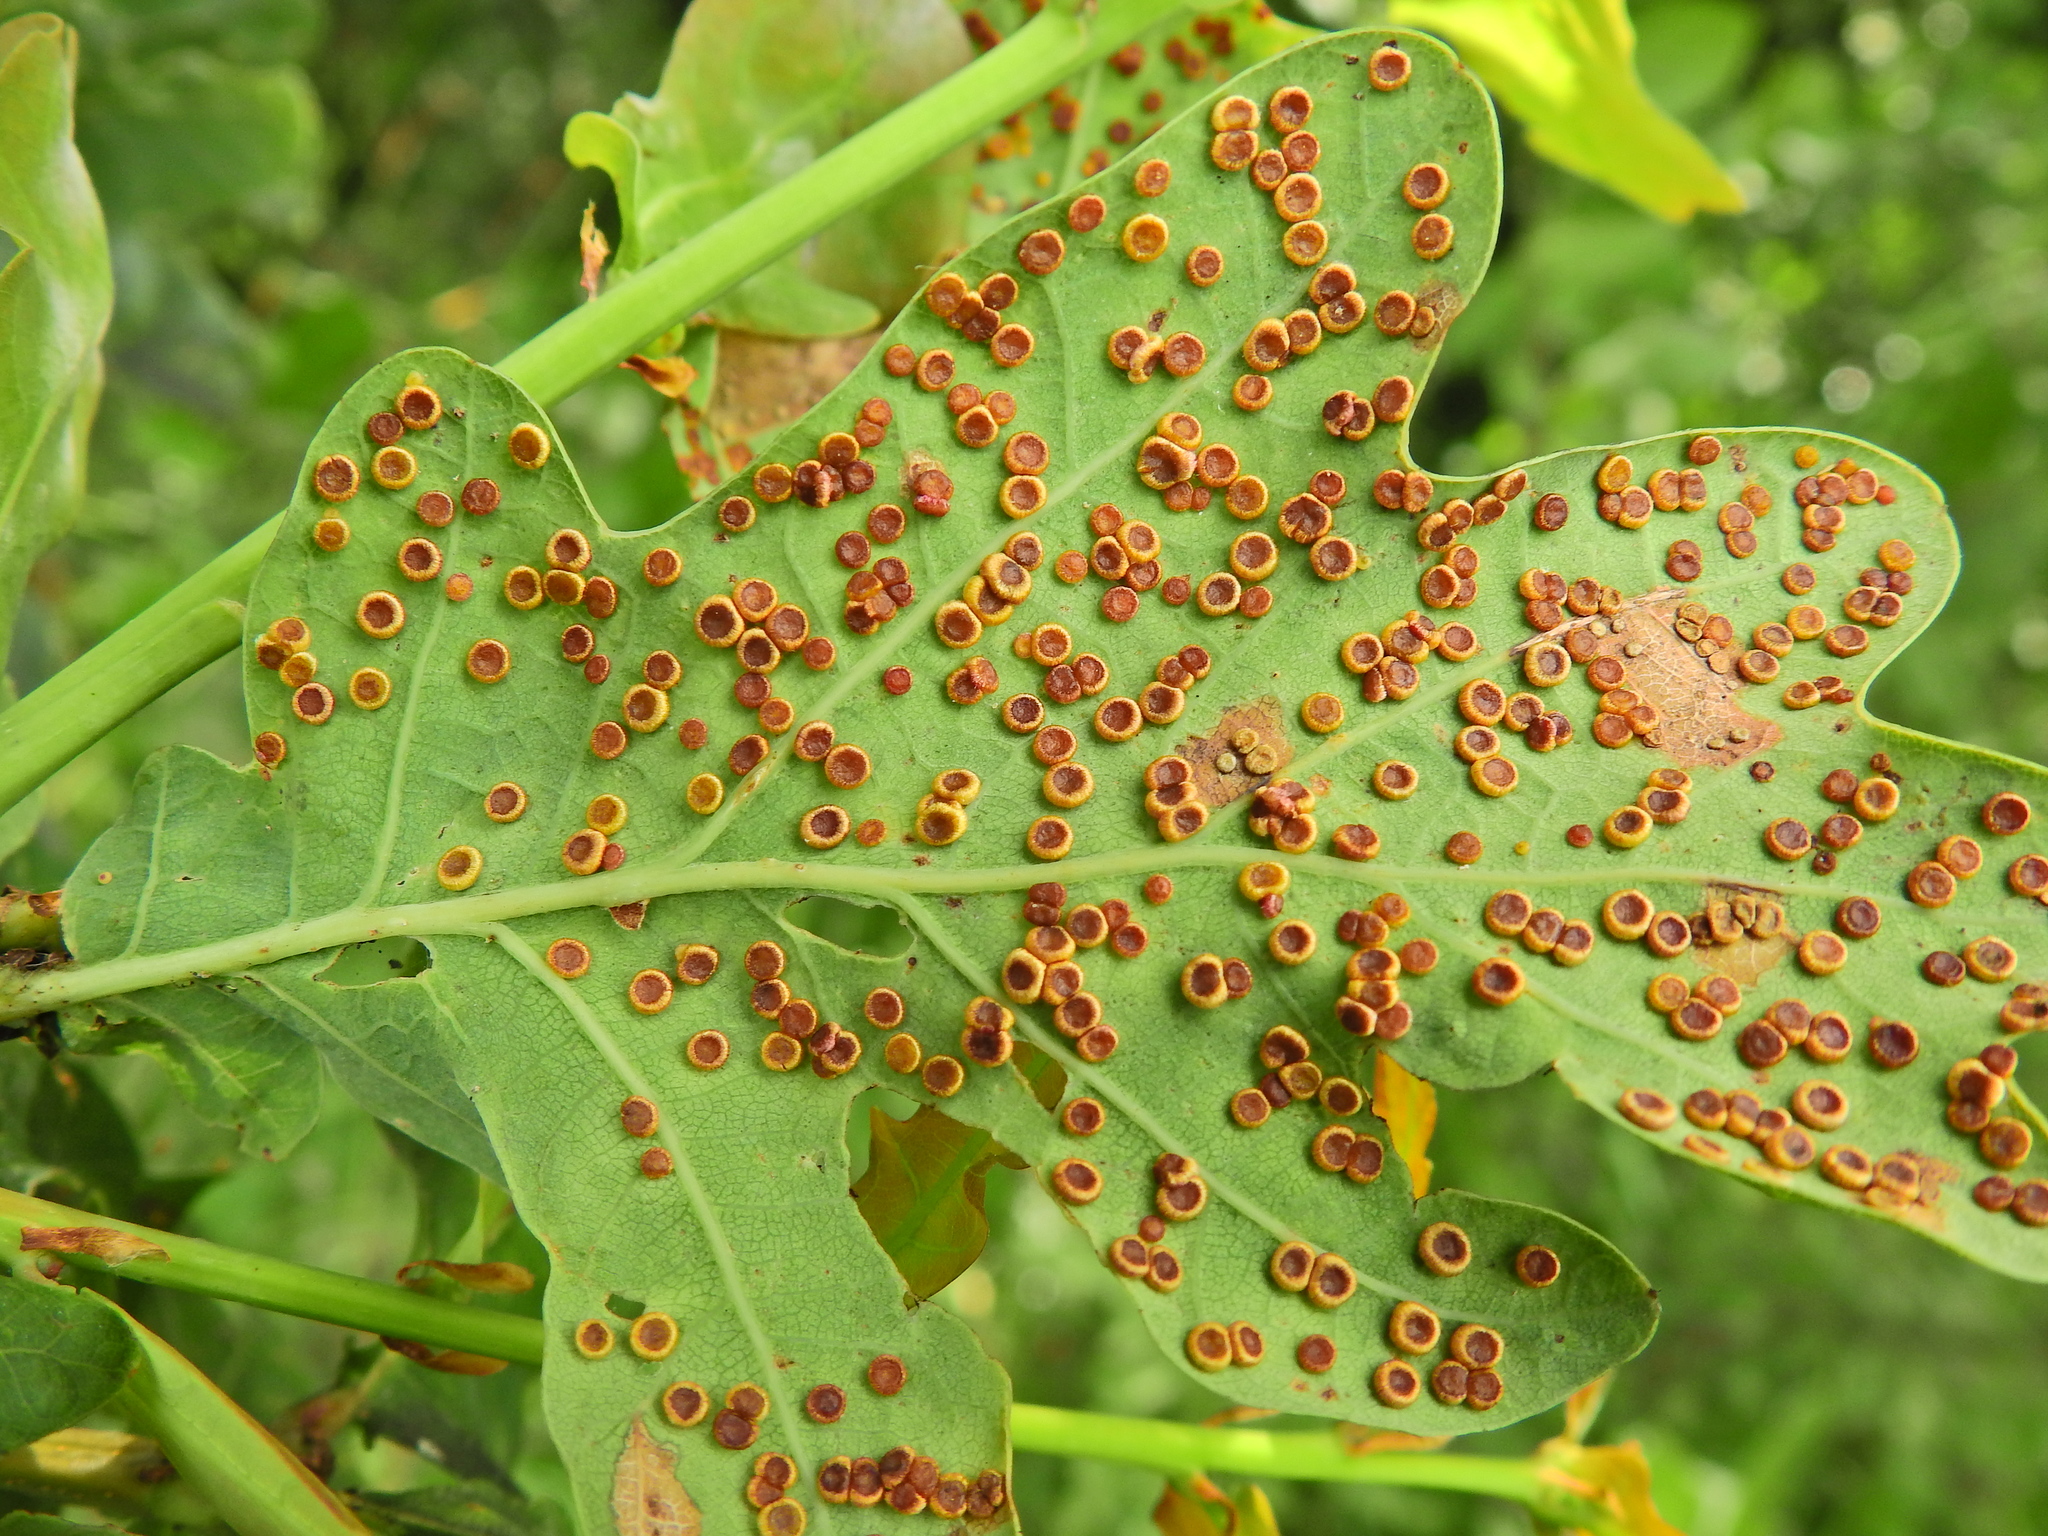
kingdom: Animalia
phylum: Arthropoda
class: Insecta
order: Hymenoptera
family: Cynipidae
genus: Neuroterus
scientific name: Neuroterus numismalis
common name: Silk-button spangle gall
